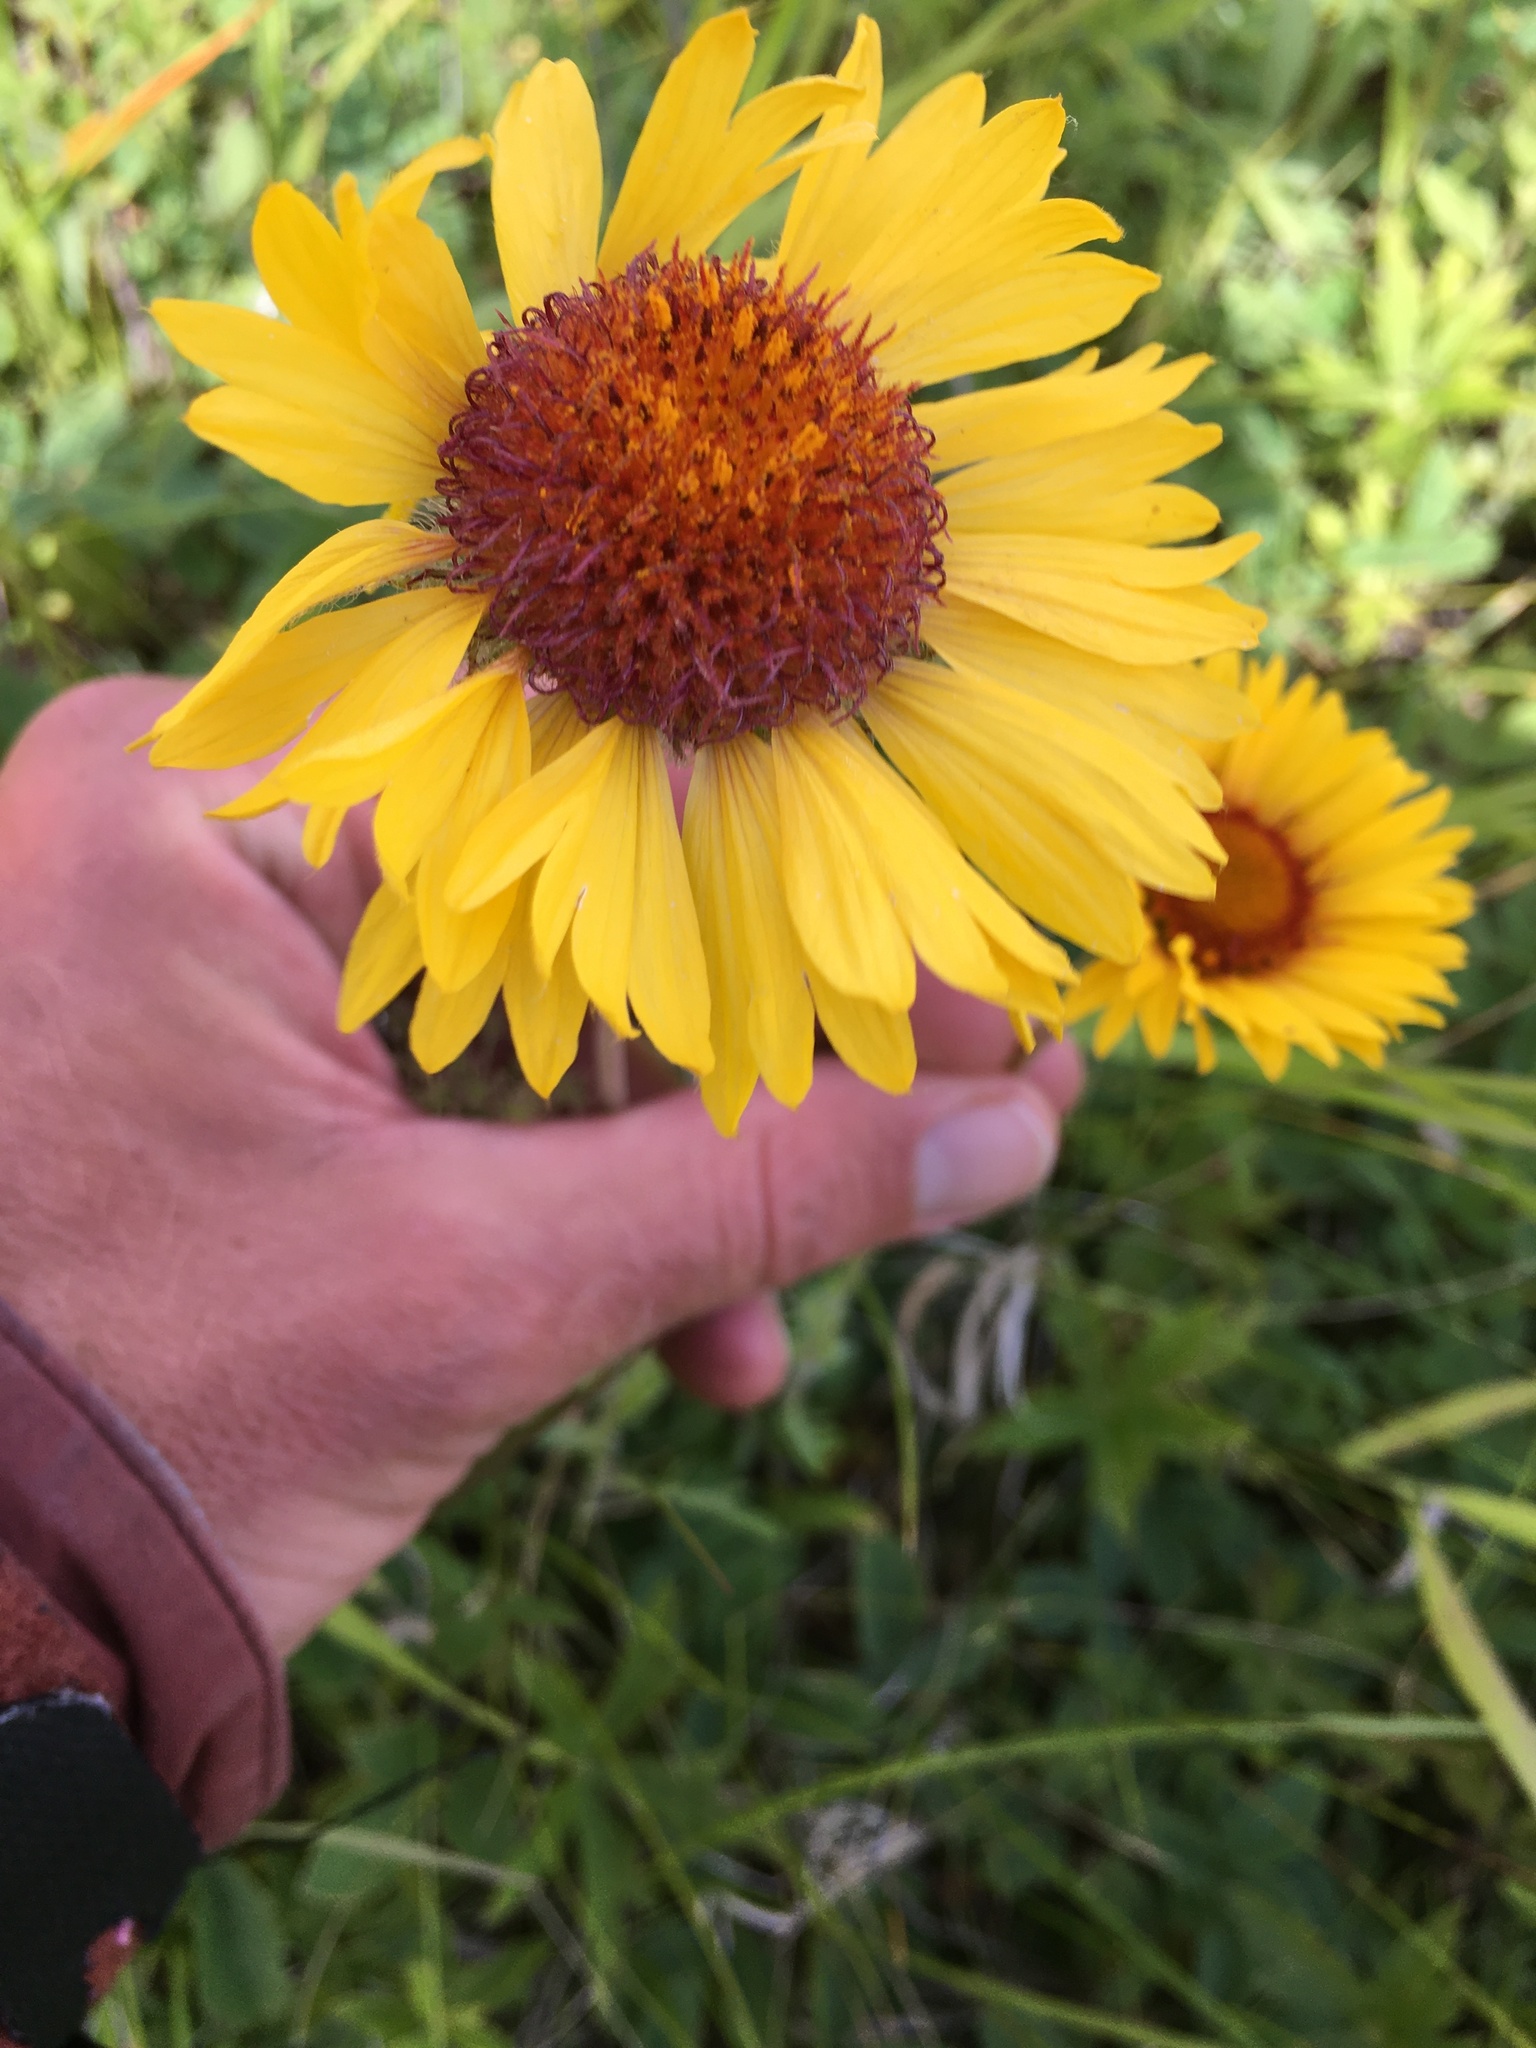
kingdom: Plantae
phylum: Tracheophyta
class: Magnoliopsida
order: Asterales
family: Asteraceae
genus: Gaillardia
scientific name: Gaillardia aristata
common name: Blanket-flower
